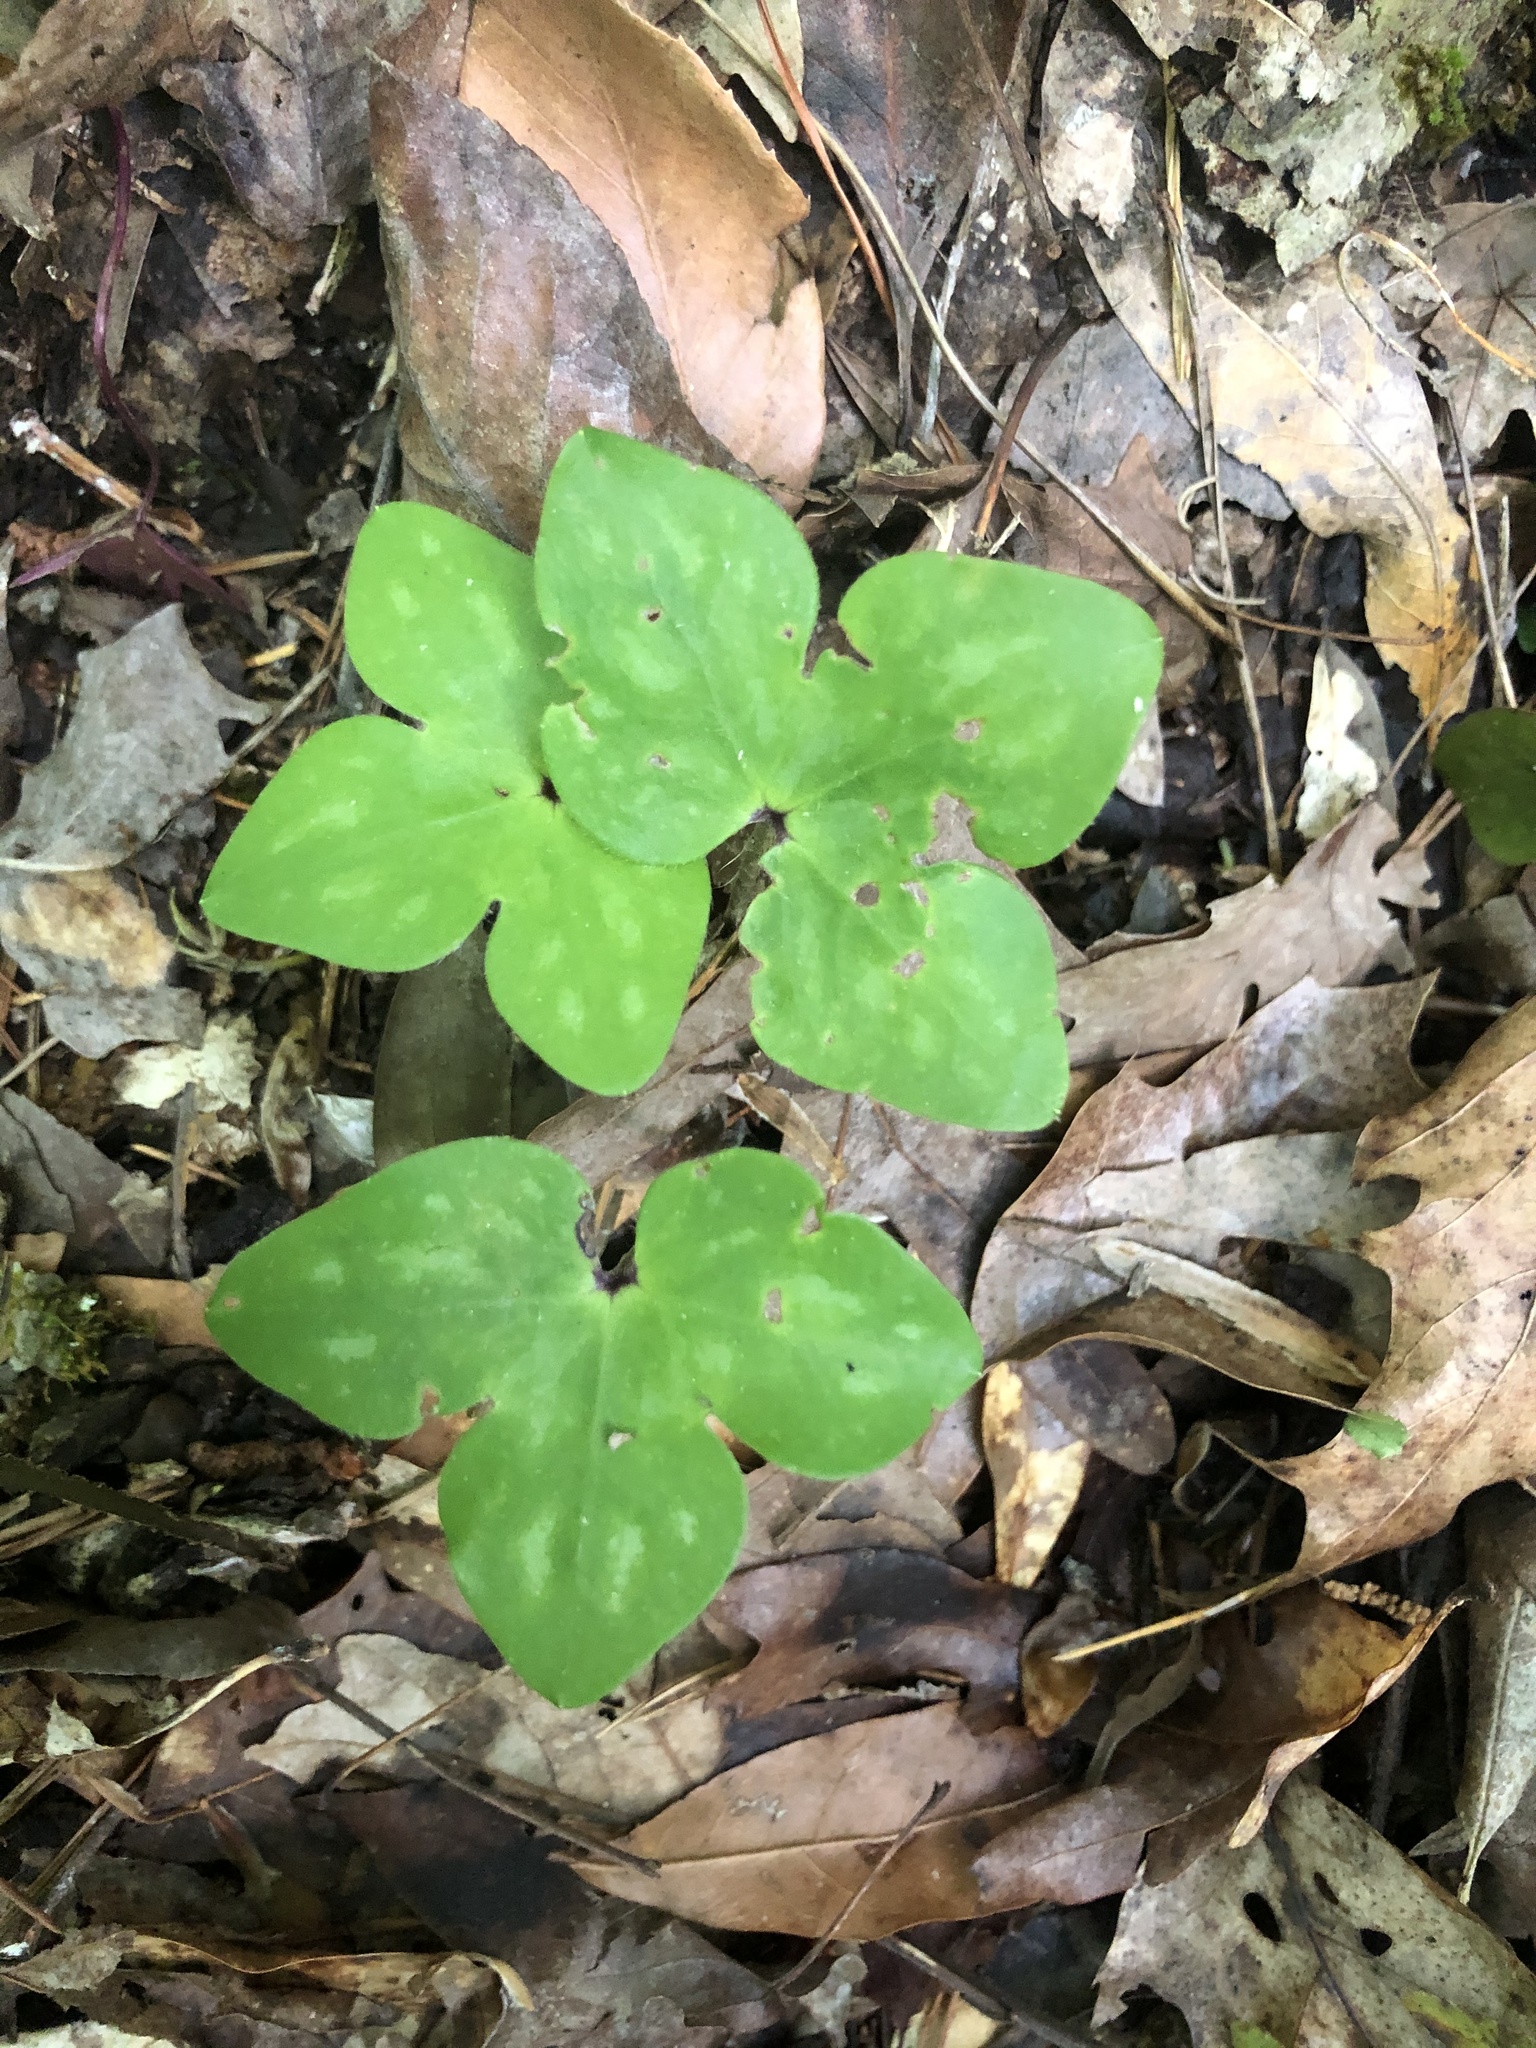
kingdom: Plantae
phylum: Tracheophyta
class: Magnoliopsida
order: Ranunculales
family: Ranunculaceae
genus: Hepatica
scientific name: Hepatica acutiloba
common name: Sharp-lobed hepatica
